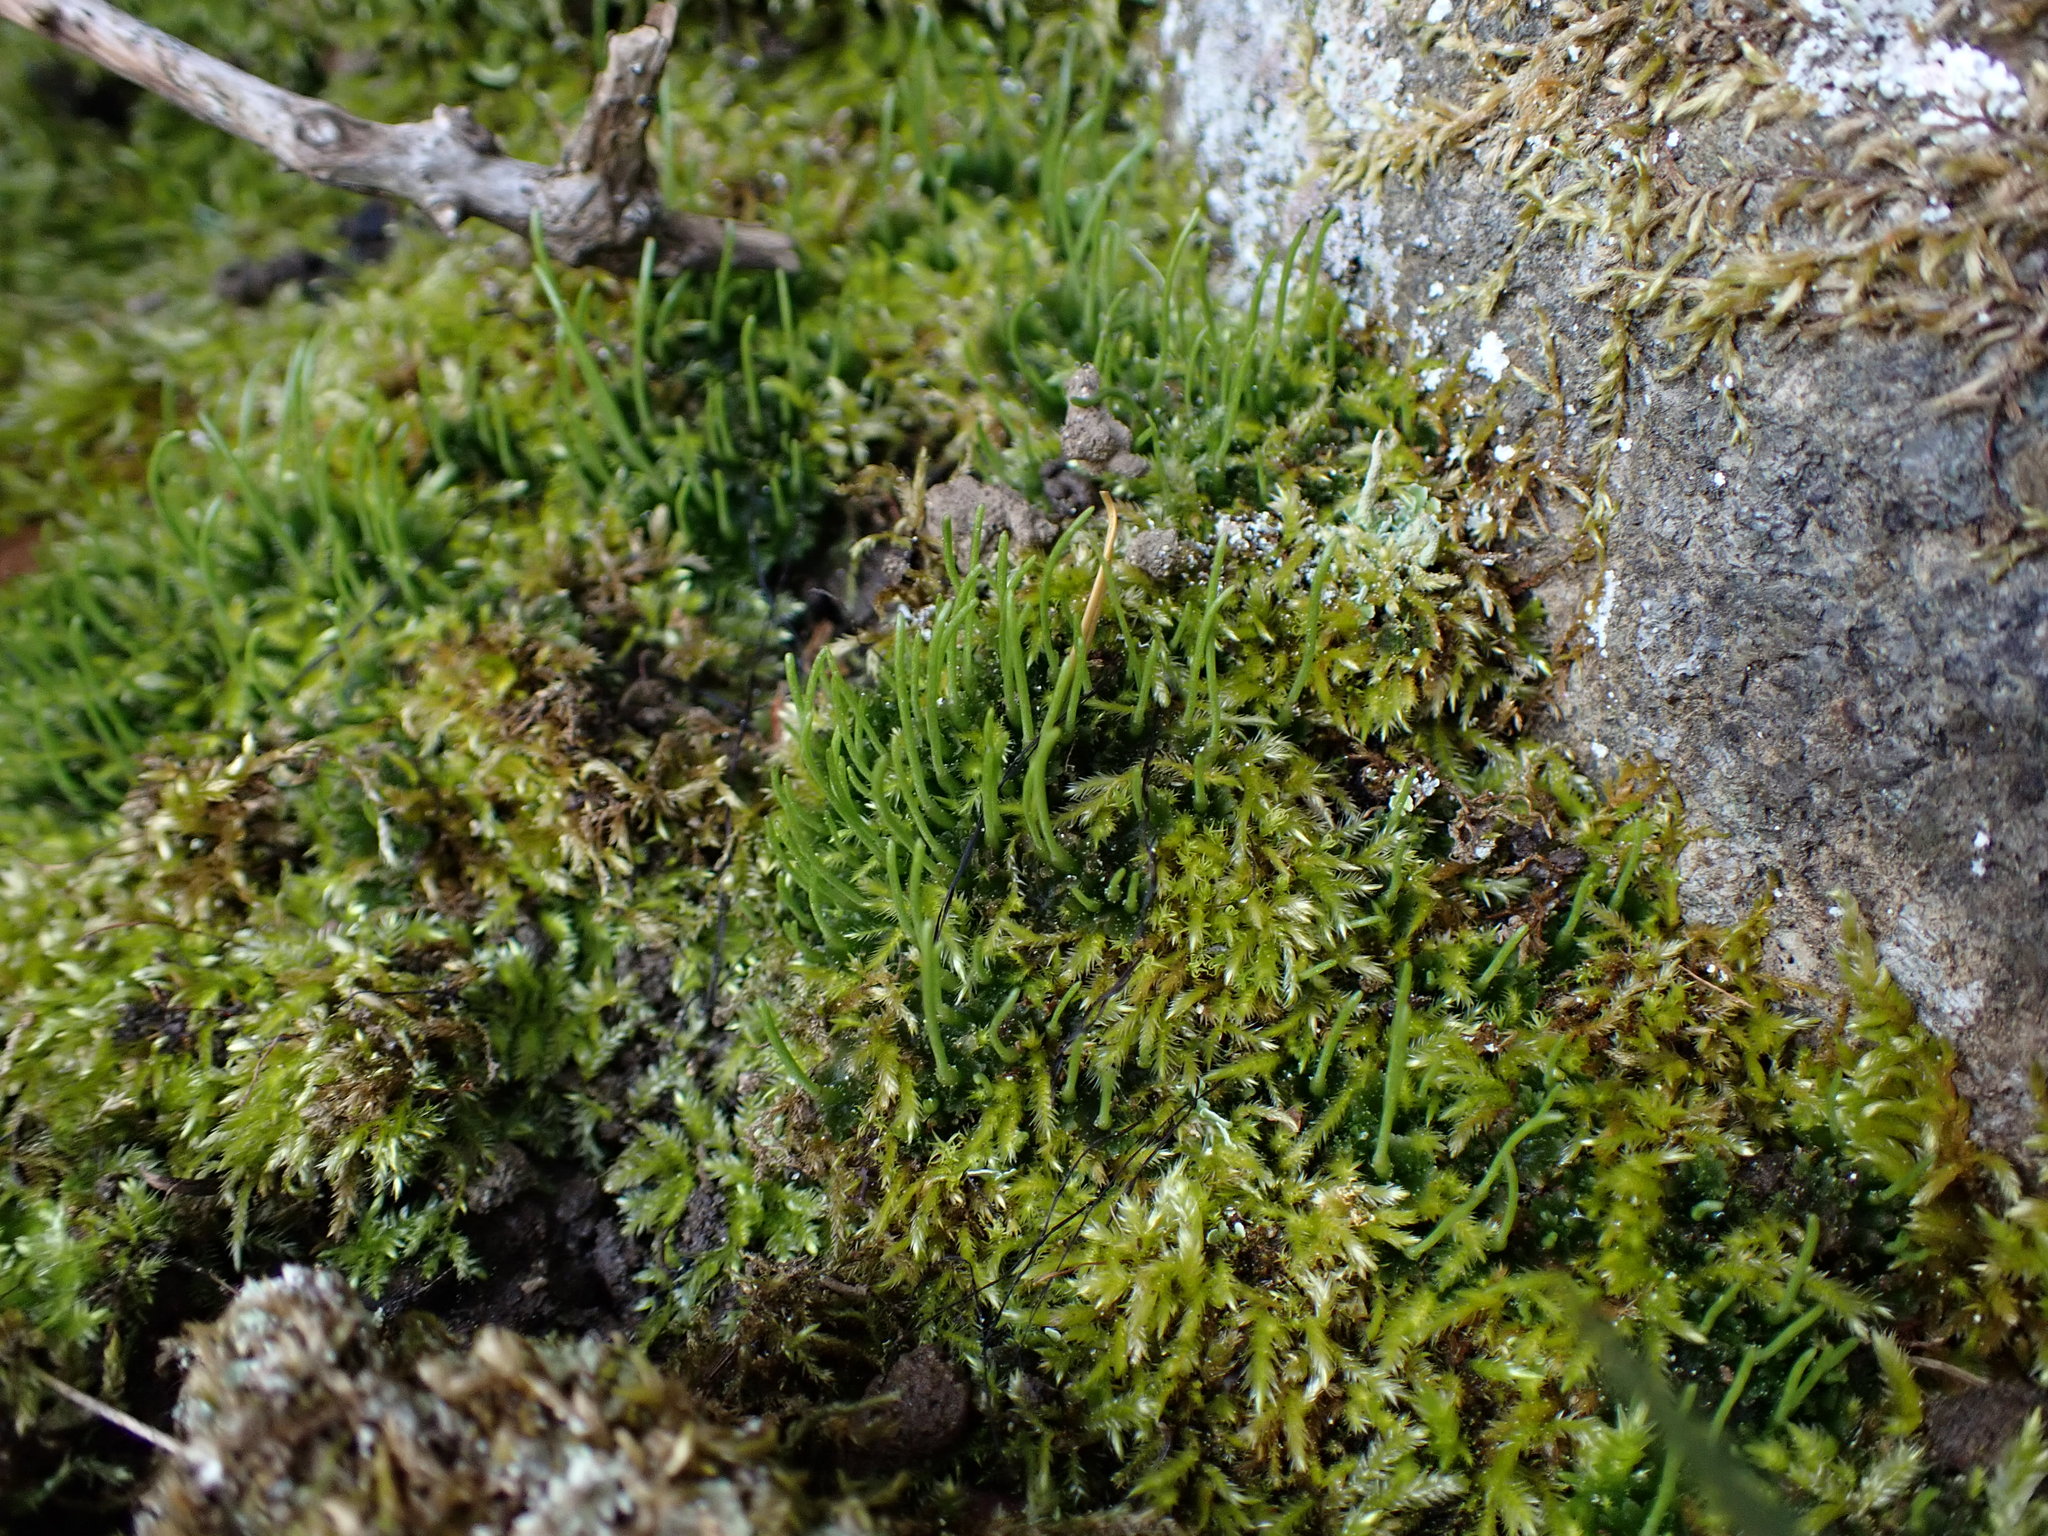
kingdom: Plantae
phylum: Anthocerotophyta
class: Anthocerotopsida
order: Anthocerotales
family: Anthocerotaceae
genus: Anthoceros
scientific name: Anthoceros fusiformis
